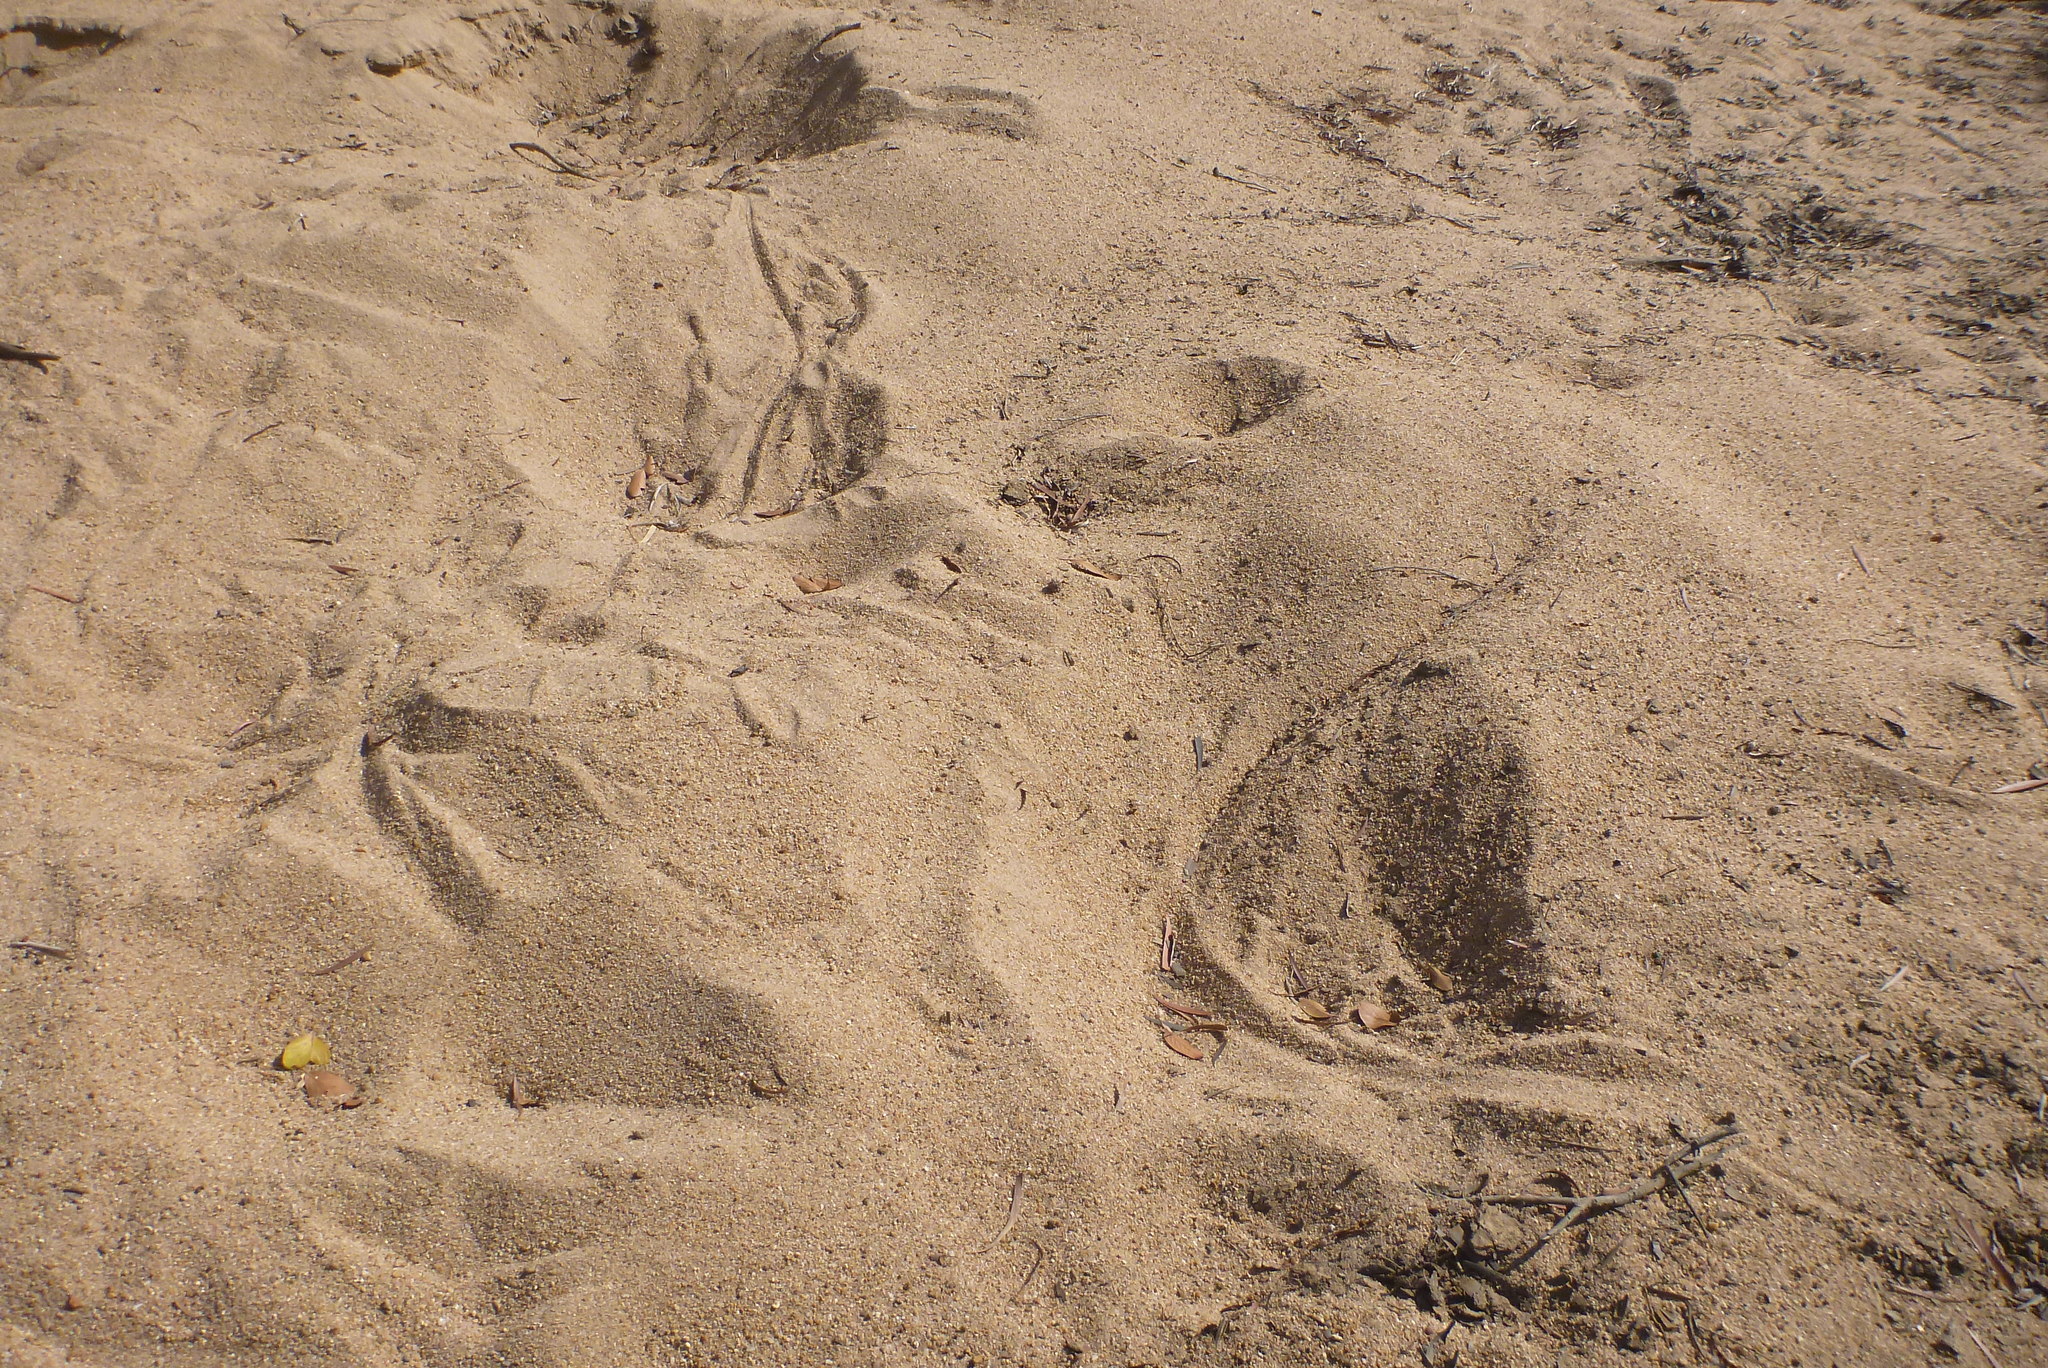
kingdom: Animalia
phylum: Chordata
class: Crocodylia
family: Crocodylidae
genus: Crocodylus
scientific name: Crocodylus johnsoni
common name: Freshwater crocodile
